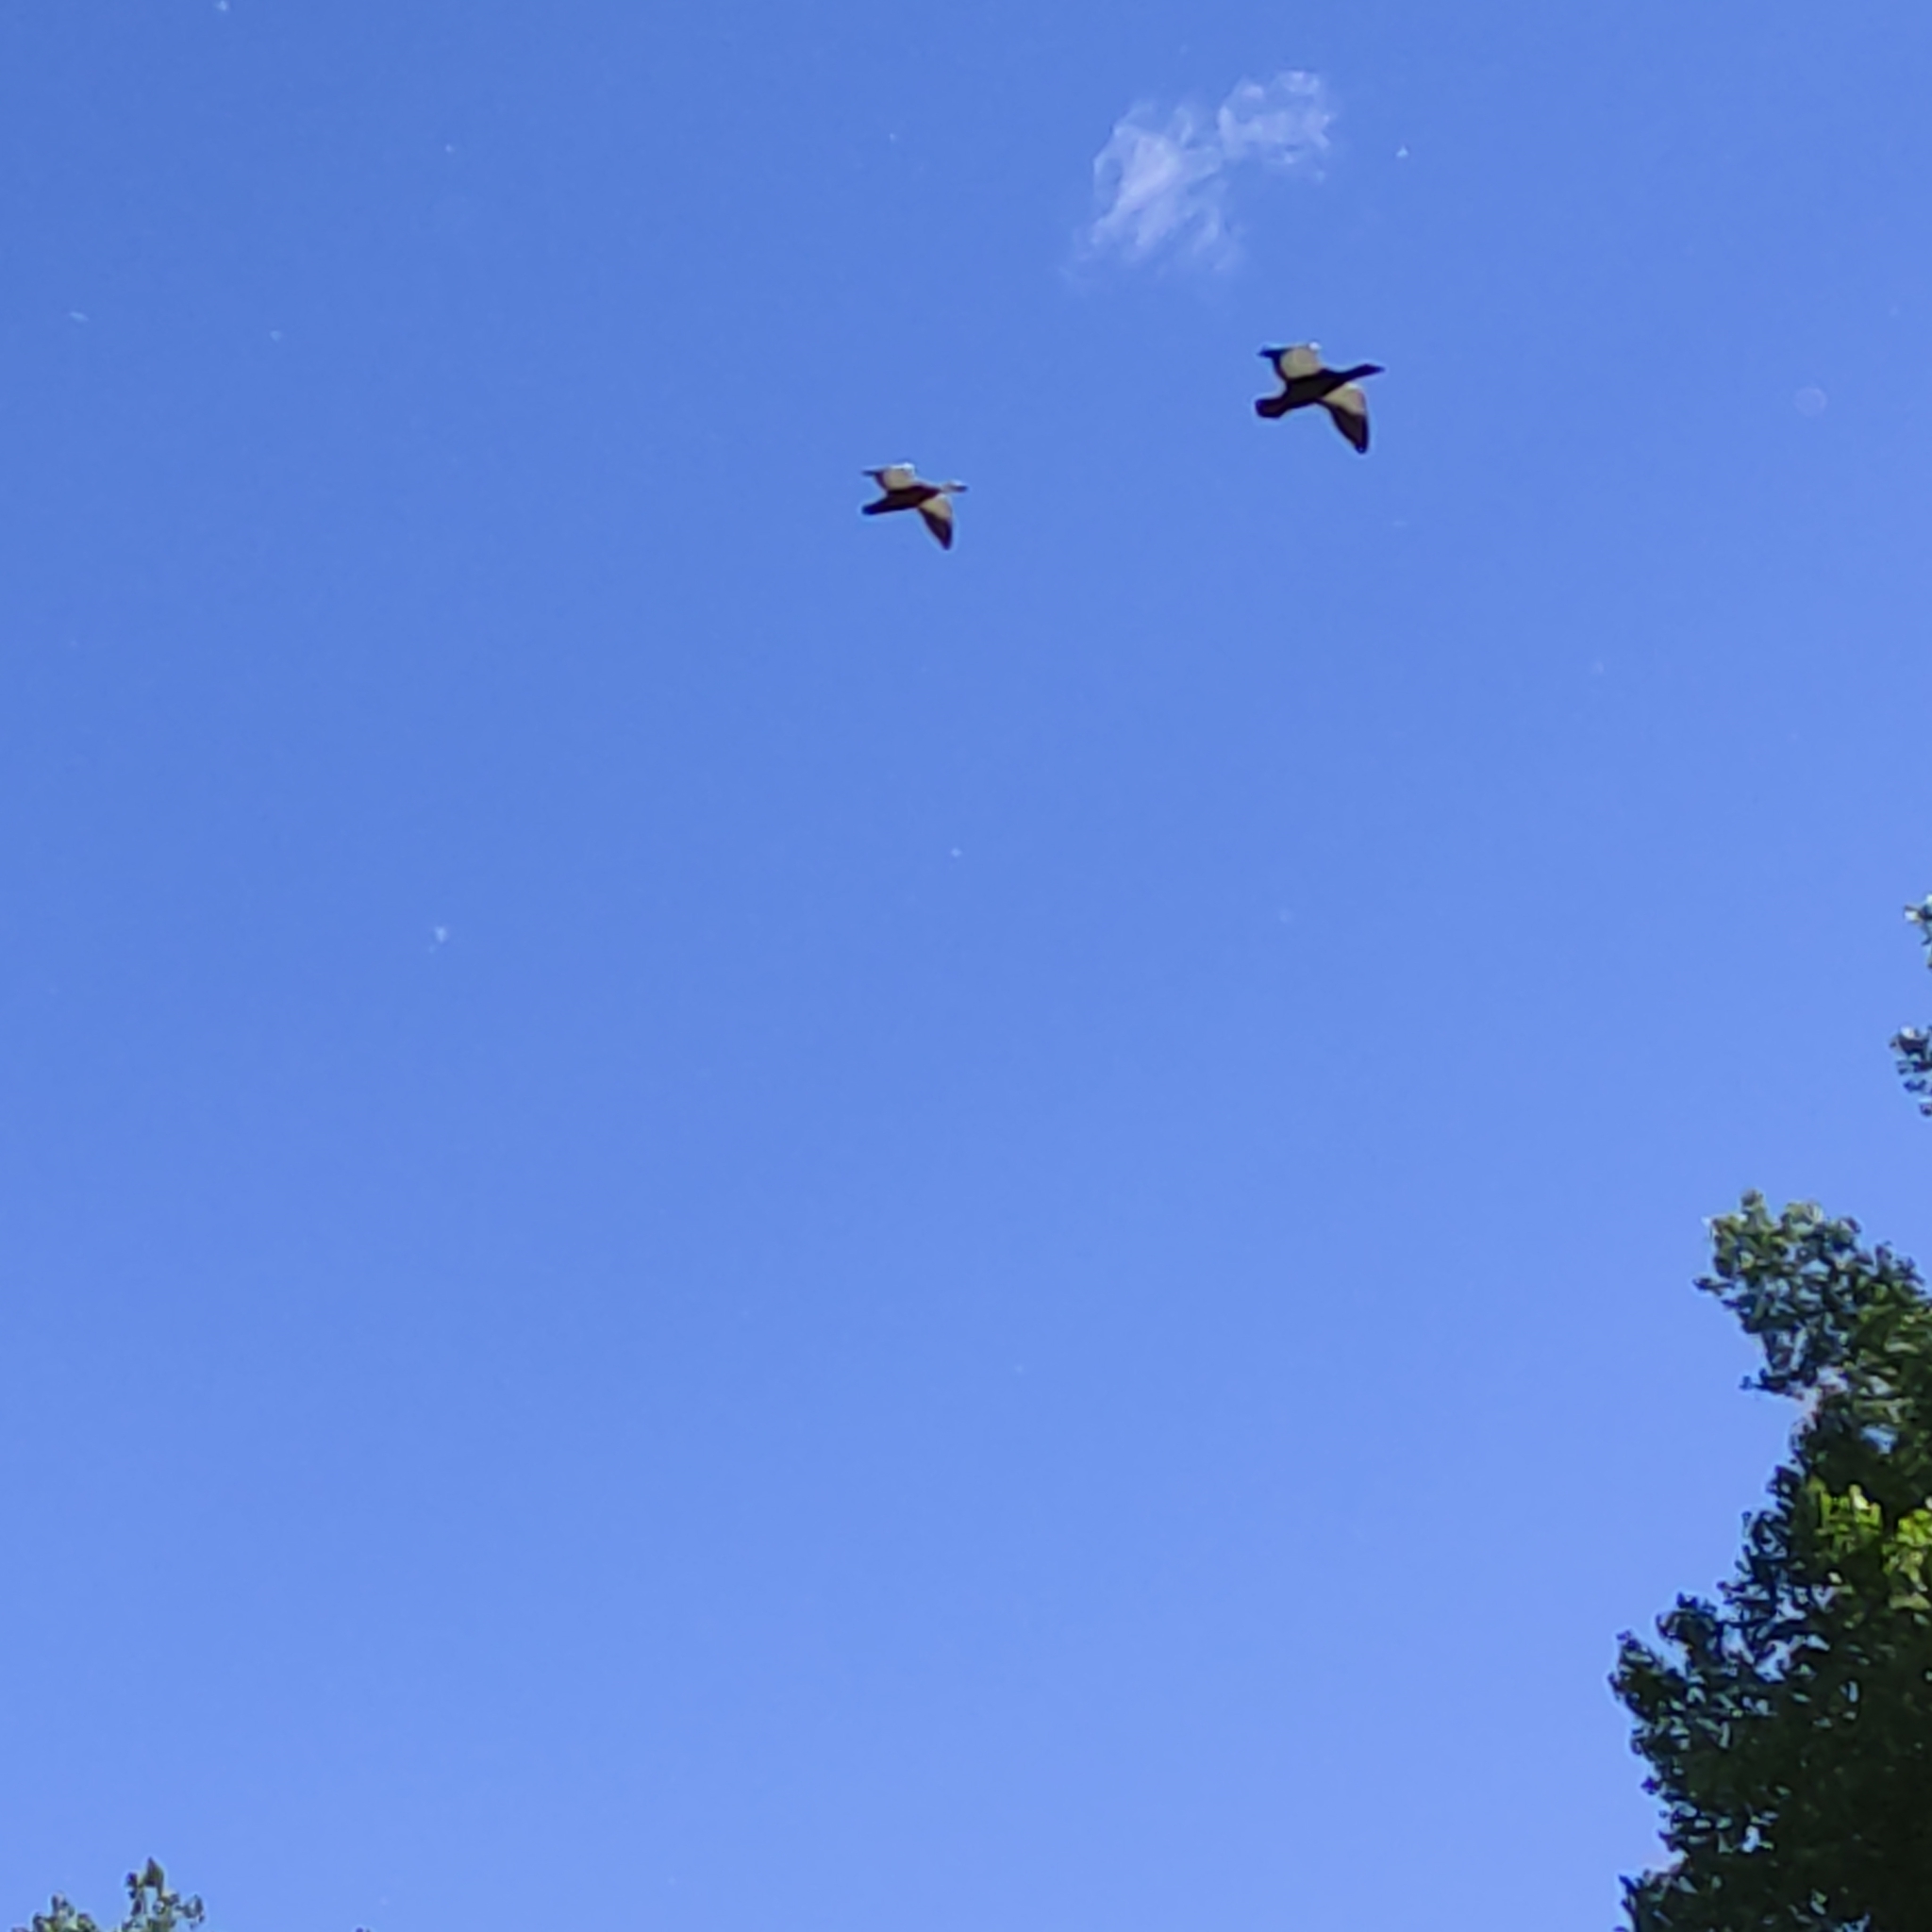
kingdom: Animalia
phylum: Chordata
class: Aves
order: Anseriformes
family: Anatidae
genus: Tadorna
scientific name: Tadorna variegata
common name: Paradise shelduck
